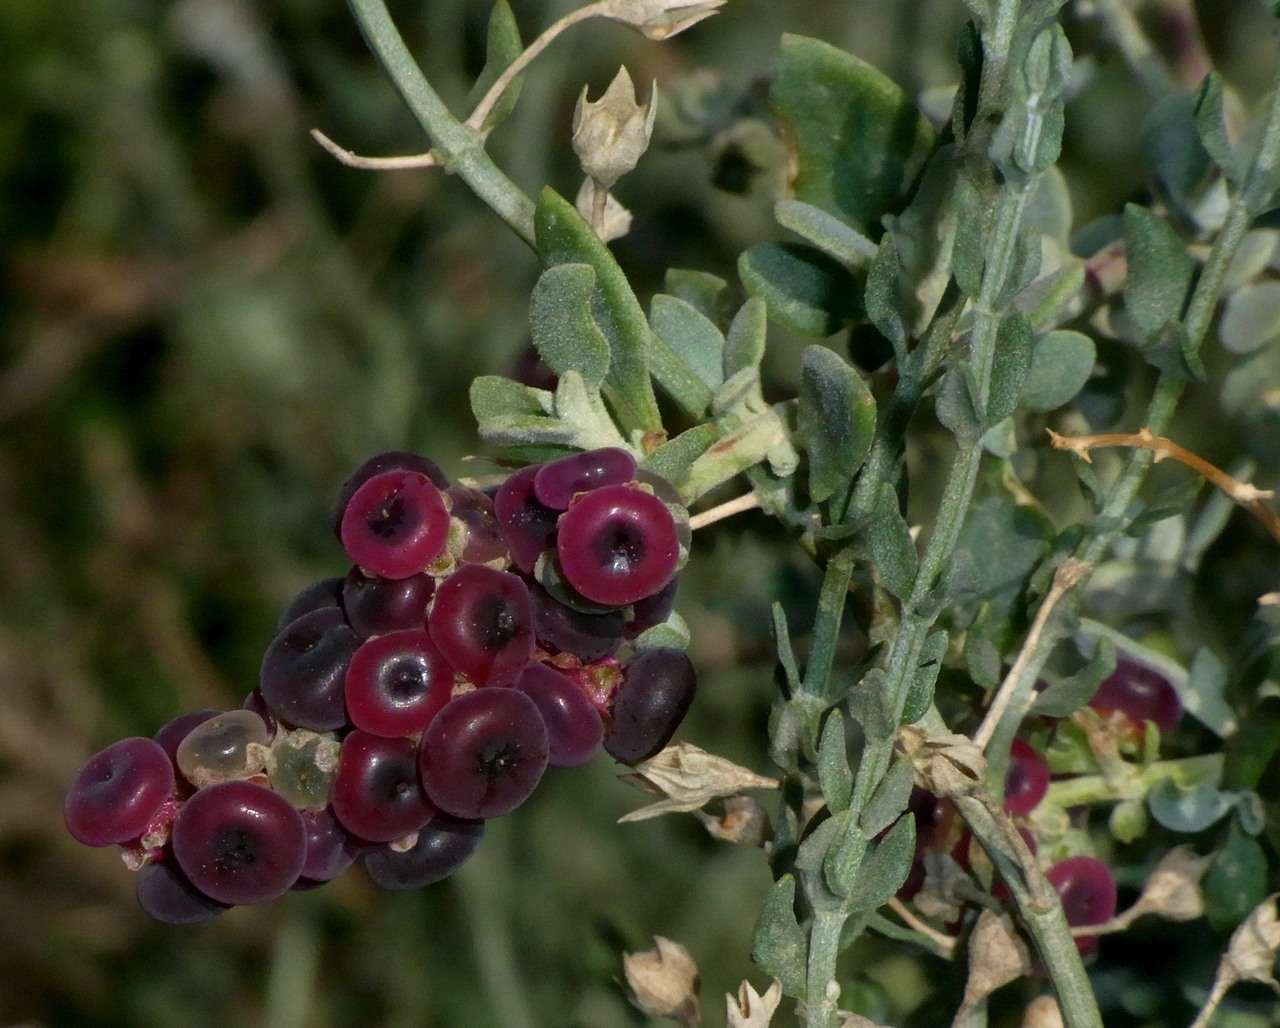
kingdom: Plantae
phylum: Tracheophyta
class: Magnoliopsida
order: Caryophyllales
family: Amaranthaceae
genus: Chenopodium
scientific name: Chenopodium spinescens
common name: Berry-saltbush
